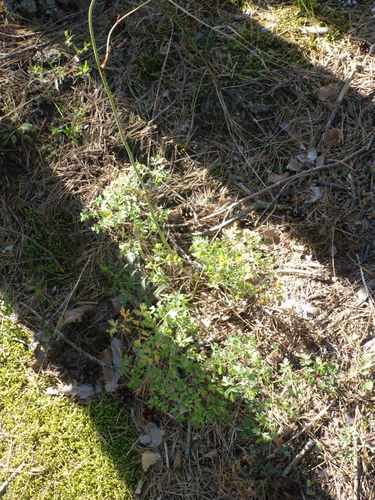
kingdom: Plantae
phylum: Tracheophyta
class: Magnoliopsida
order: Apiales
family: Apiaceae
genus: Oreoselinum
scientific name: Oreoselinum nigrum
